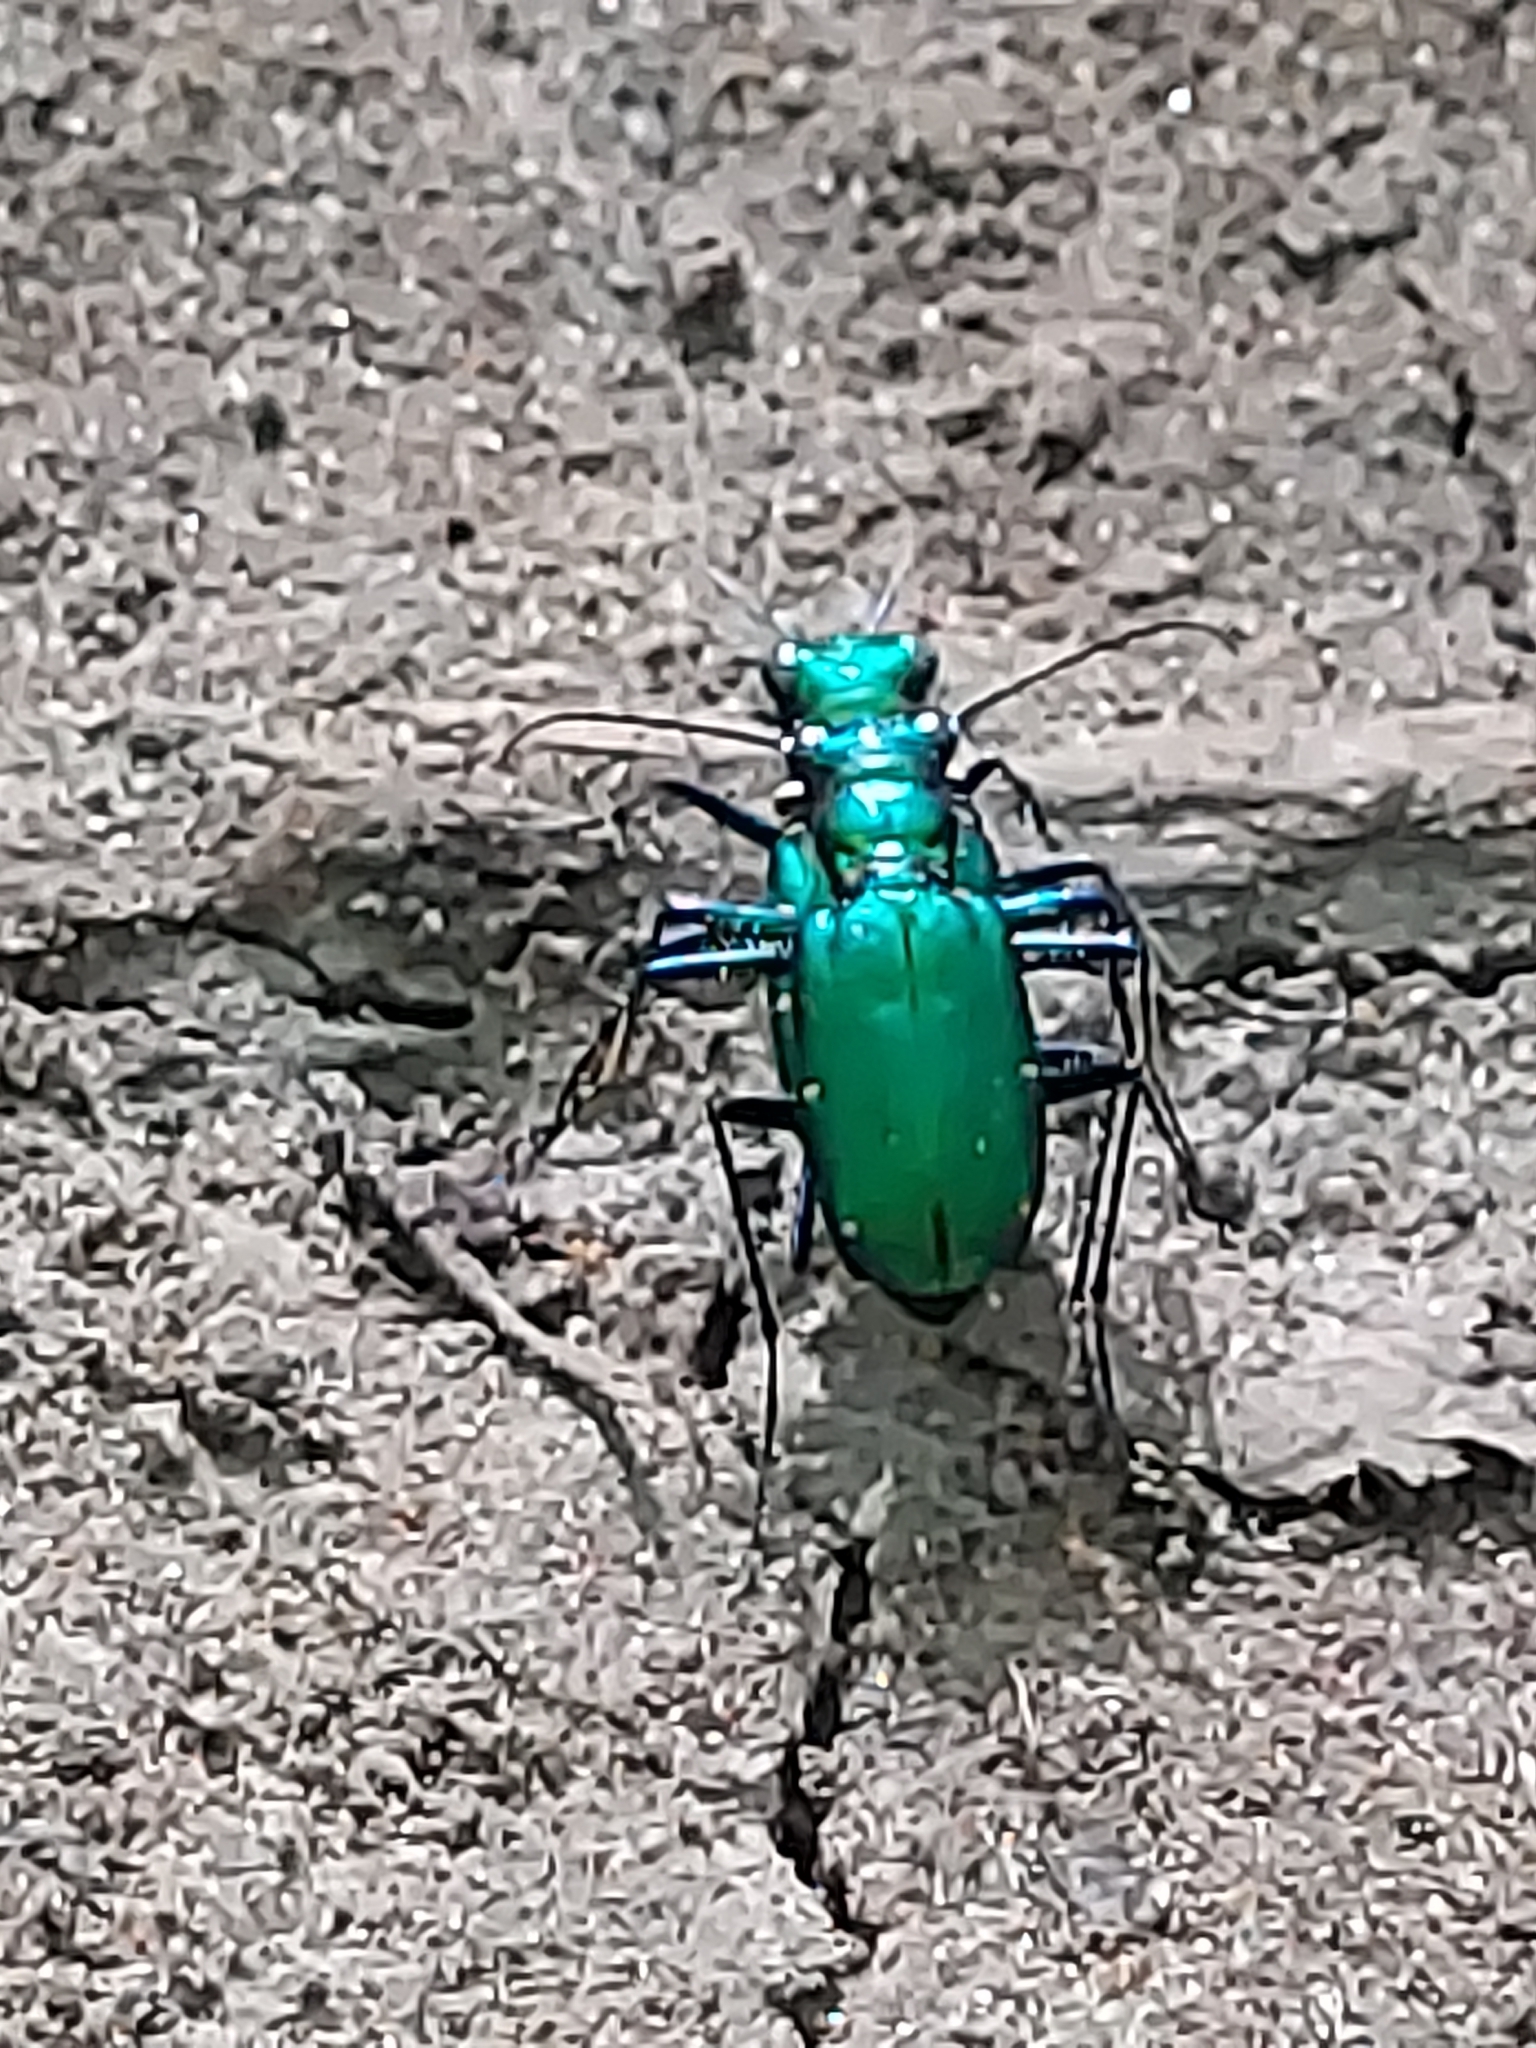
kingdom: Animalia
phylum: Arthropoda
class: Insecta
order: Coleoptera
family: Carabidae
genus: Cicindela
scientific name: Cicindela sexguttata
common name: Six-spotted tiger beetle
